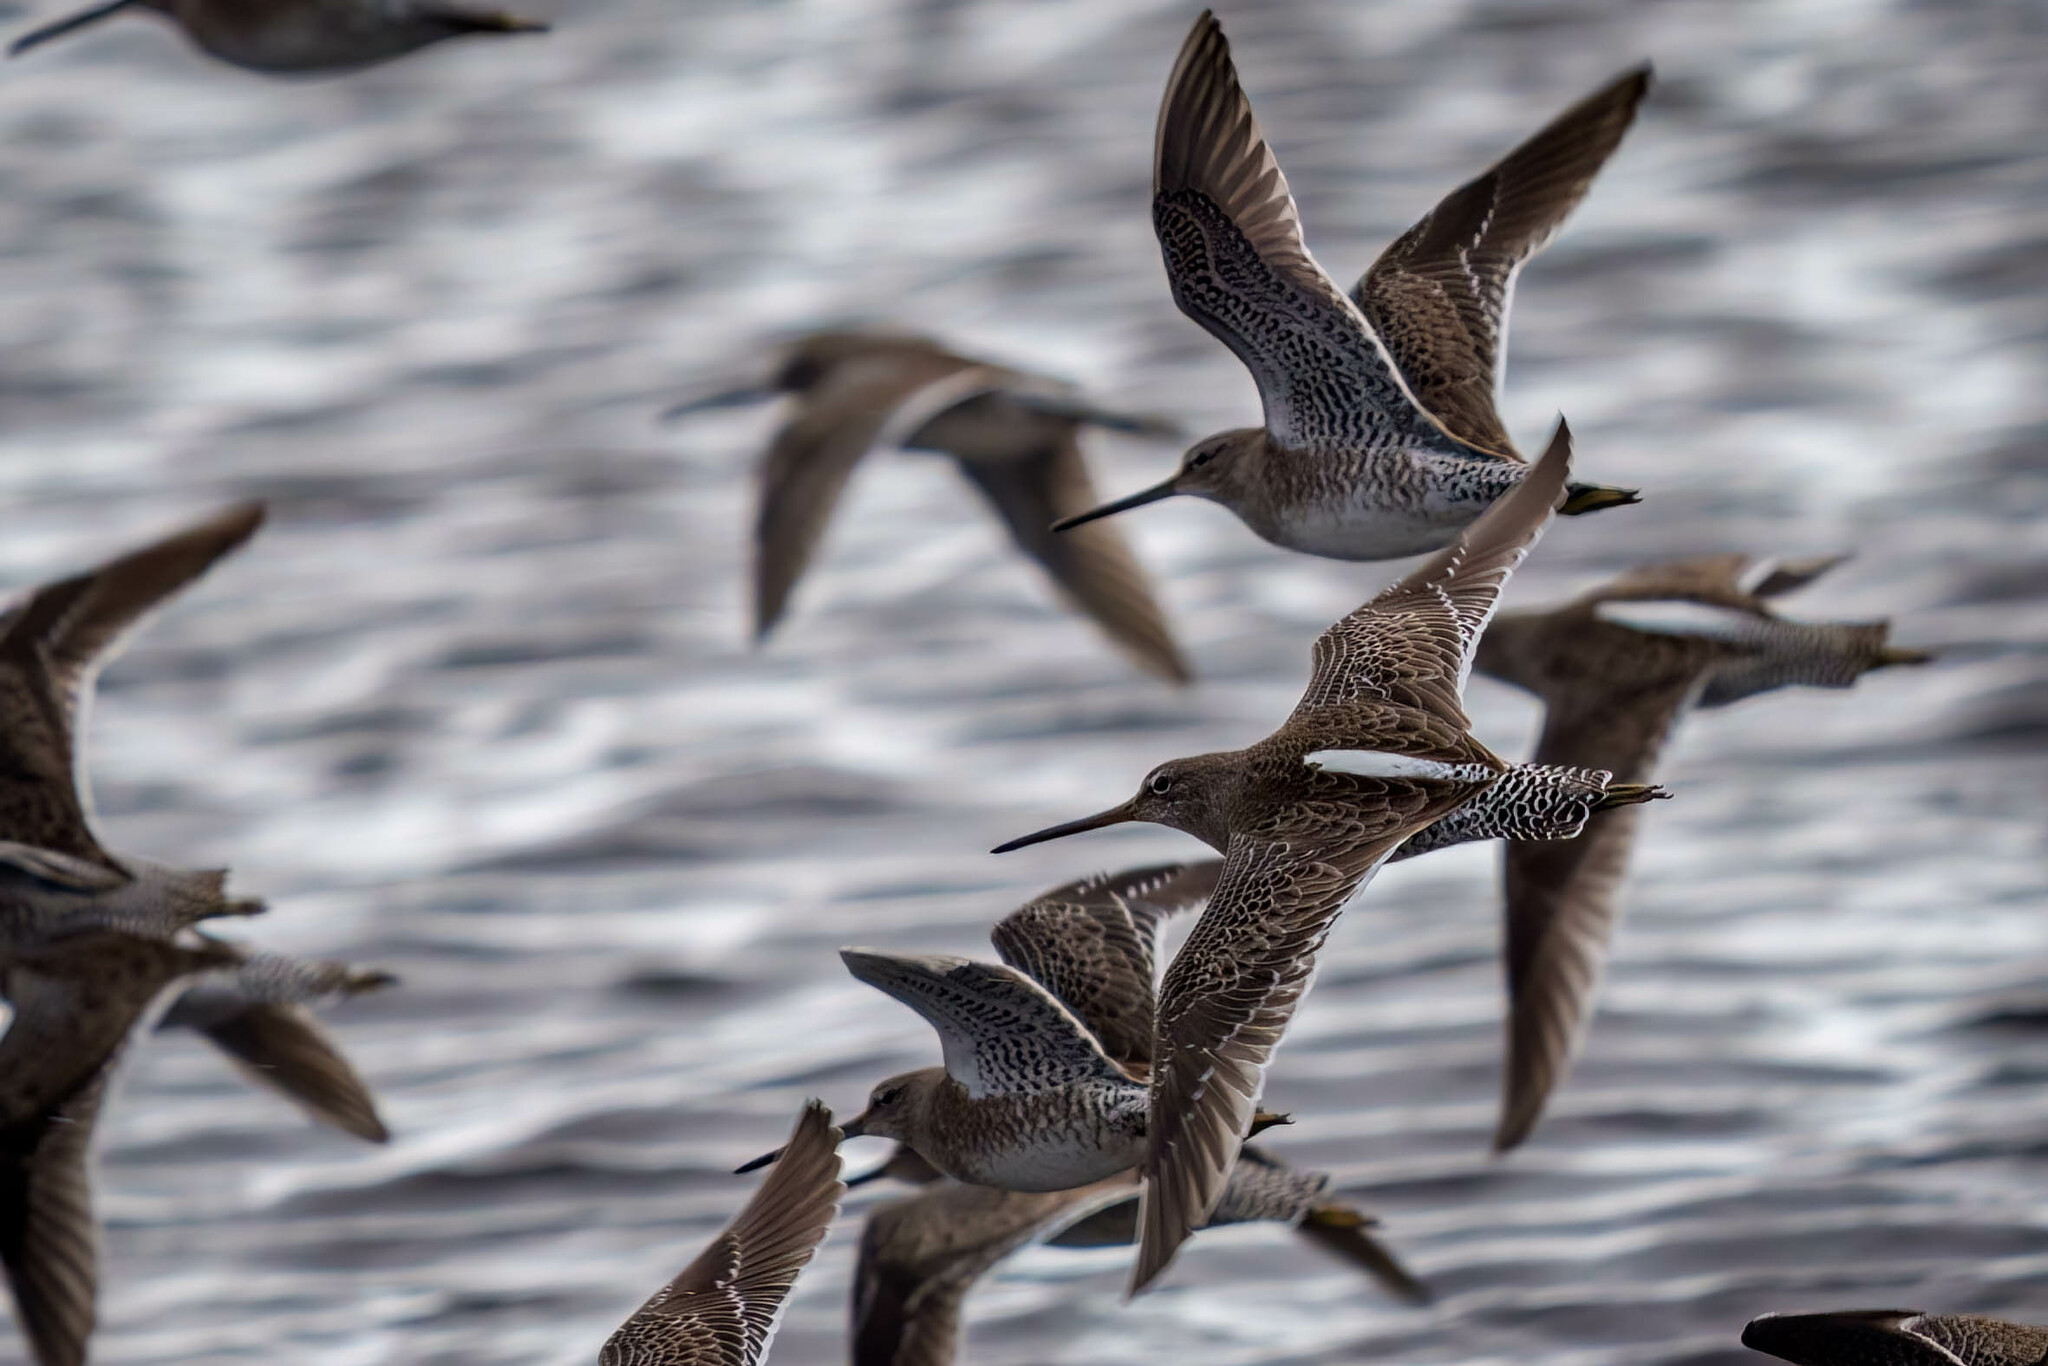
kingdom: Animalia
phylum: Chordata
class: Aves
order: Charadriiformes
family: Scolopacidae
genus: Limnodromus
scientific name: Limnodromus scolopaceus
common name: Long-billed dowitcher
